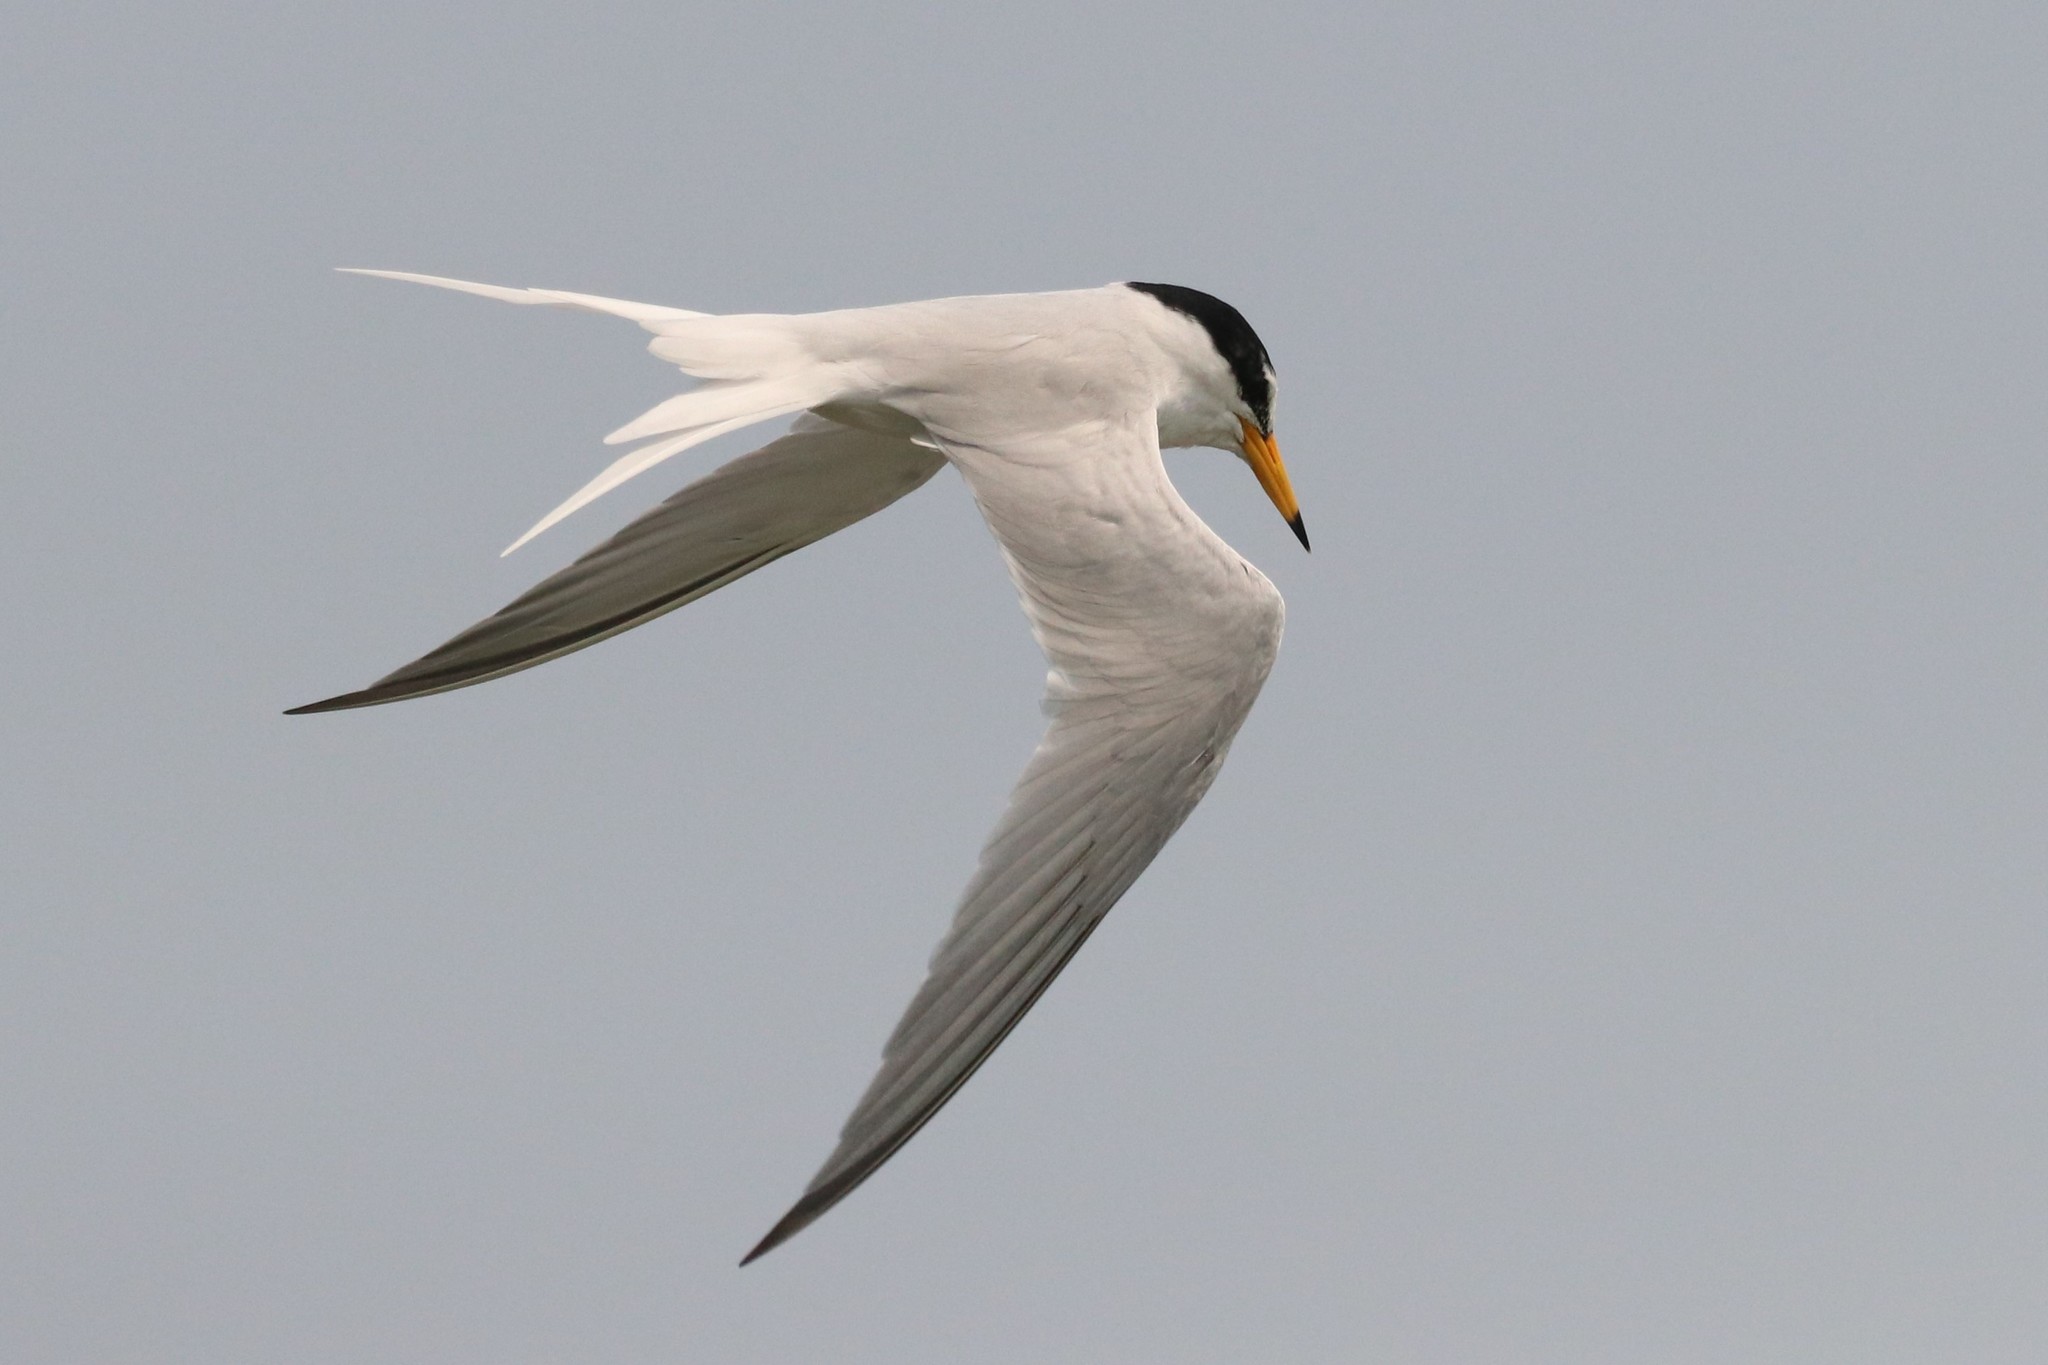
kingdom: Animalia
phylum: Chordata
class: Aves
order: Charadriiformes
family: Laridae
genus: Sternula
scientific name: Sternula albifrons
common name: Little tern
